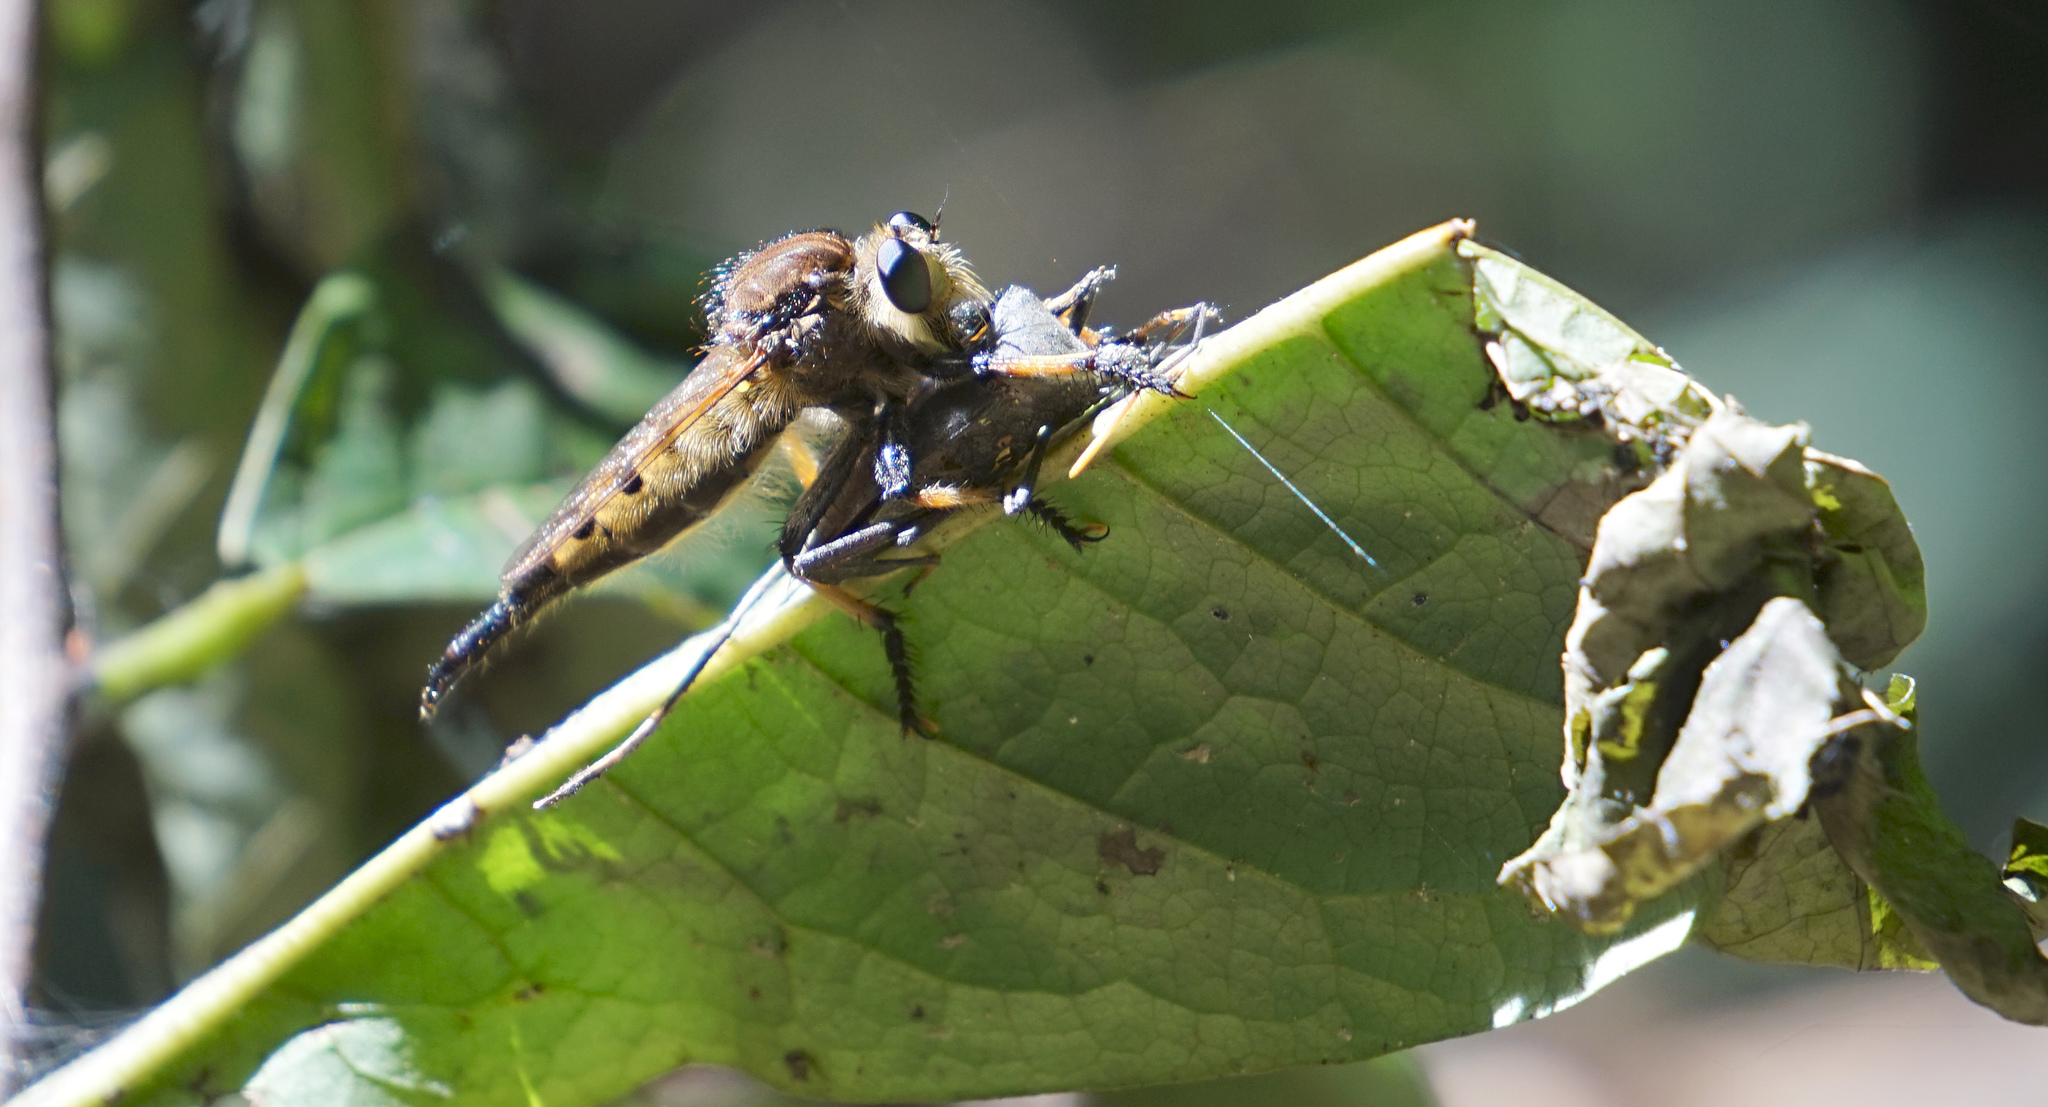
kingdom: Animalia
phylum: Arthropoda
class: Insecta
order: Diptera
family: Asilidae
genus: Promachus
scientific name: Promachus rufipes
